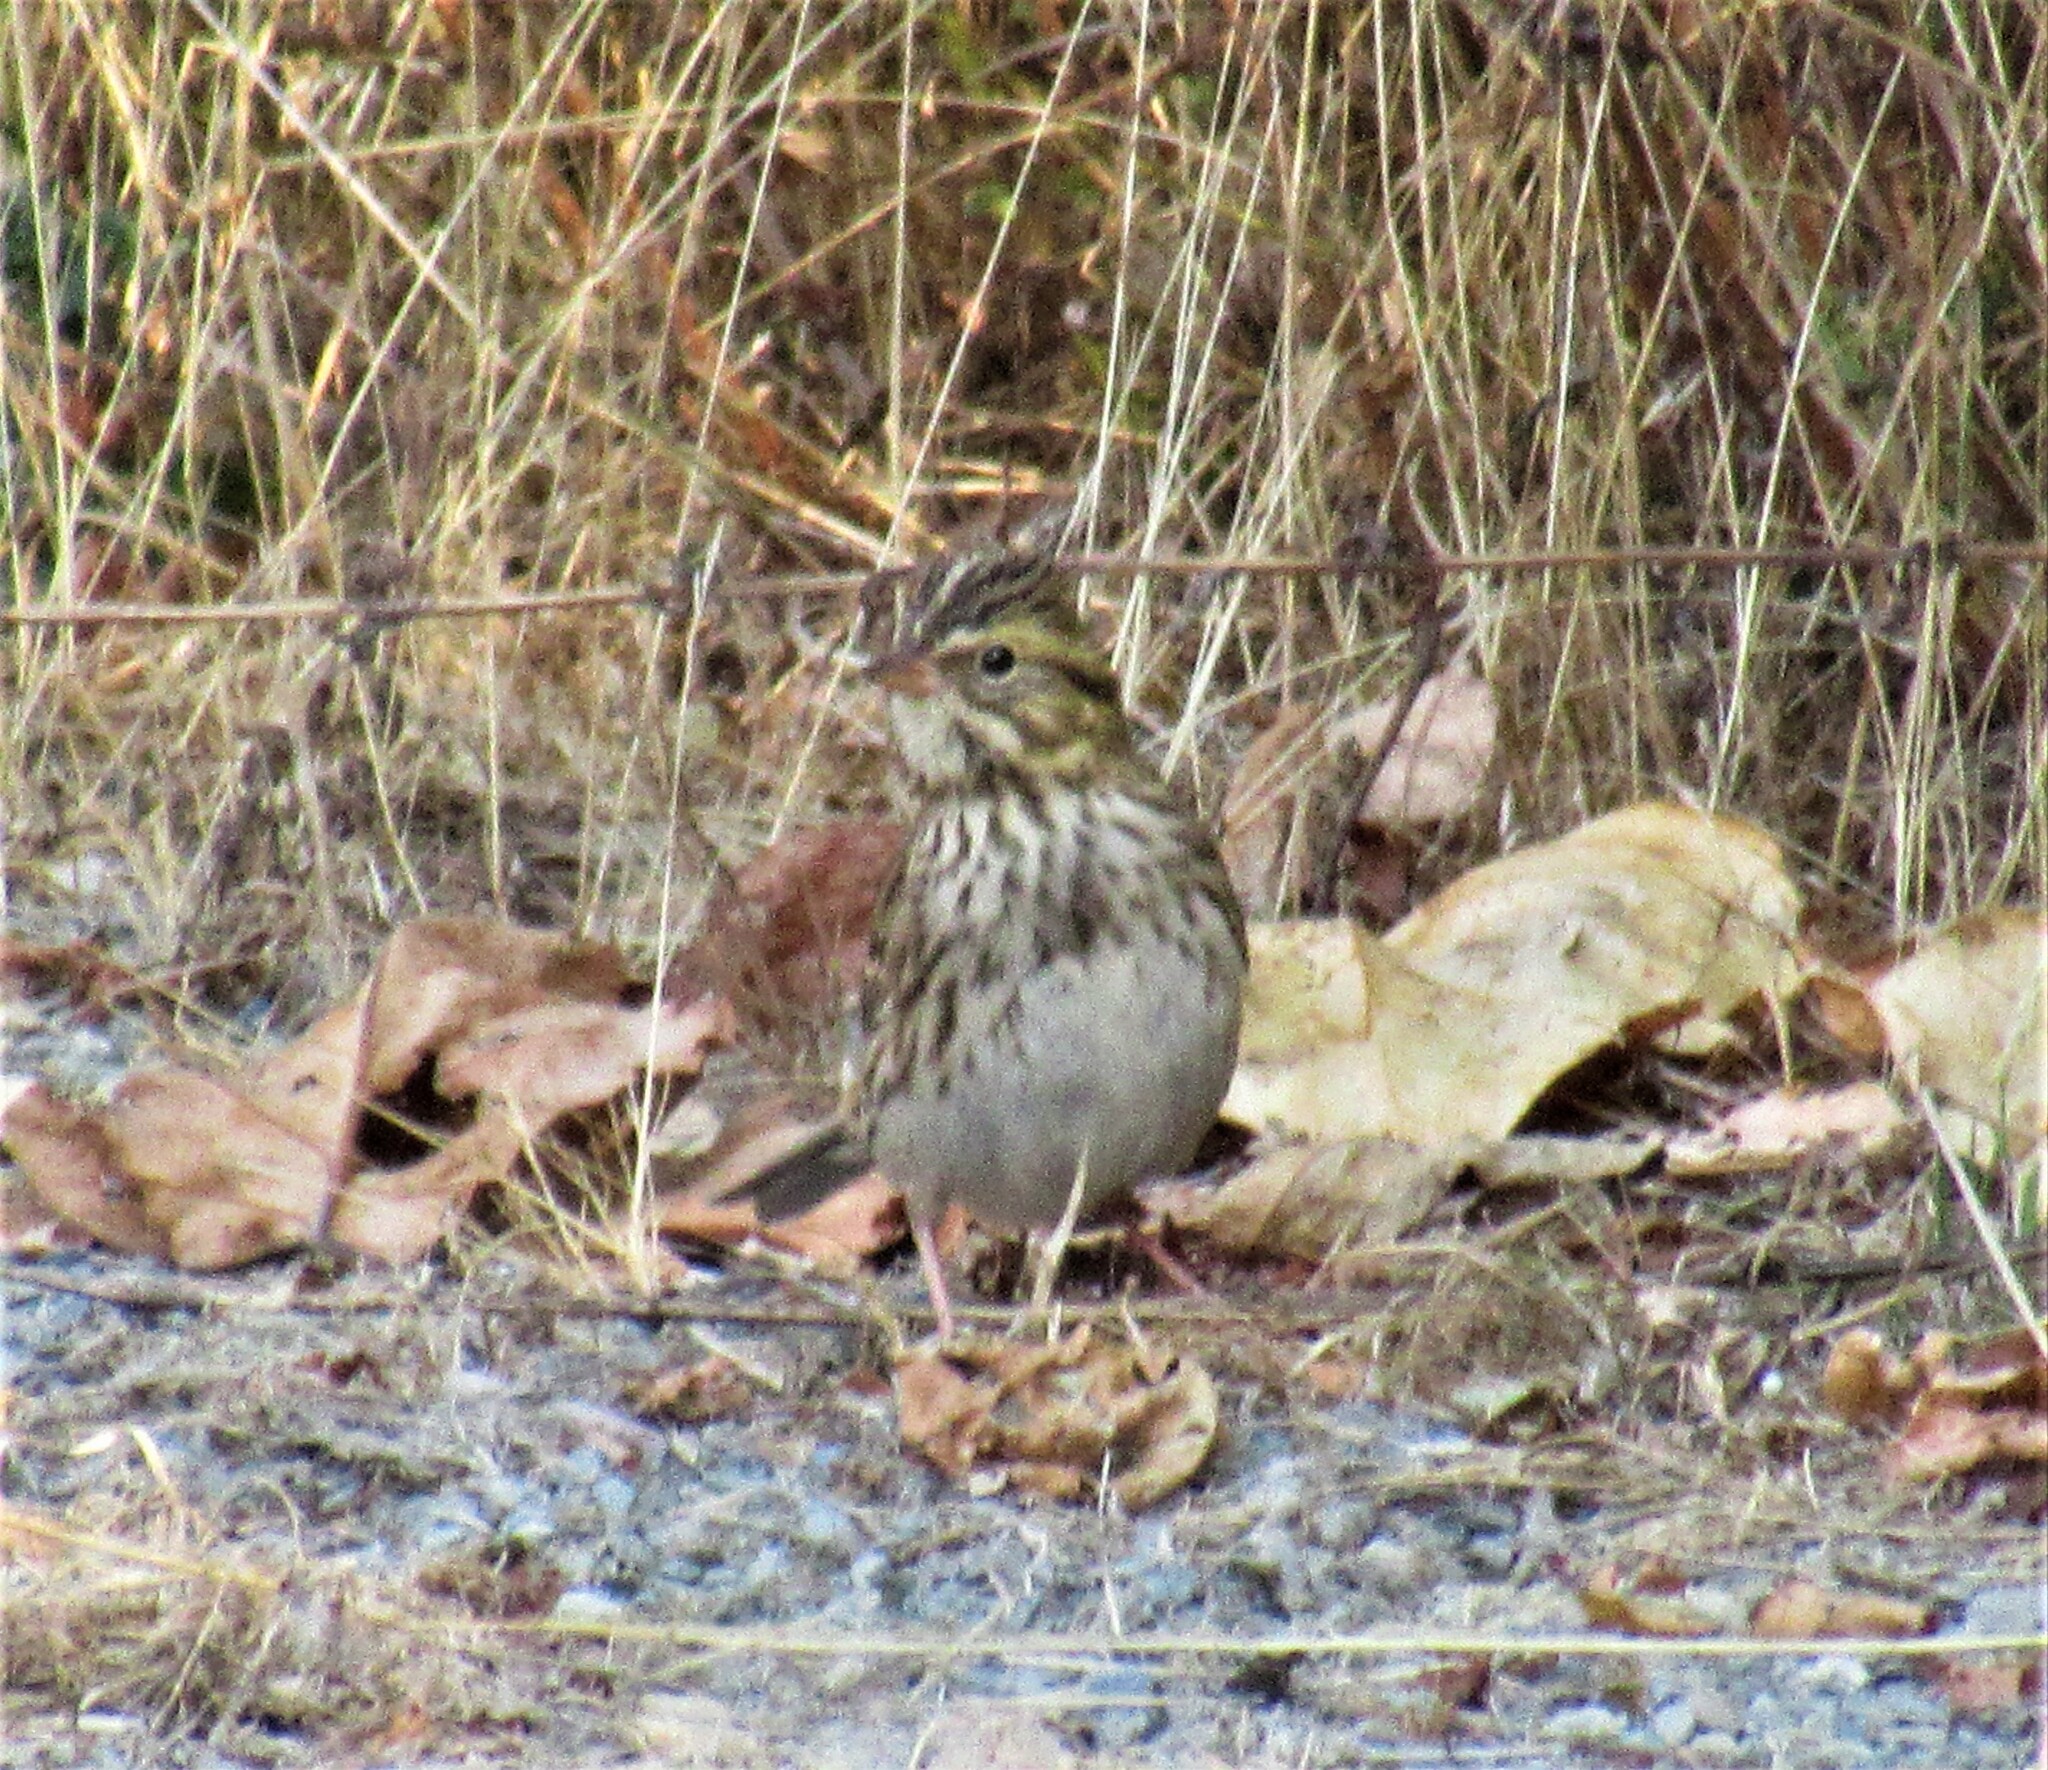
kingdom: Animalia
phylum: Chordata
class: Aves
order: Passeriformes
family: Passerellidae
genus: Passerculus
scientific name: Passerculus sandwichensis
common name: Savannah sparrow
